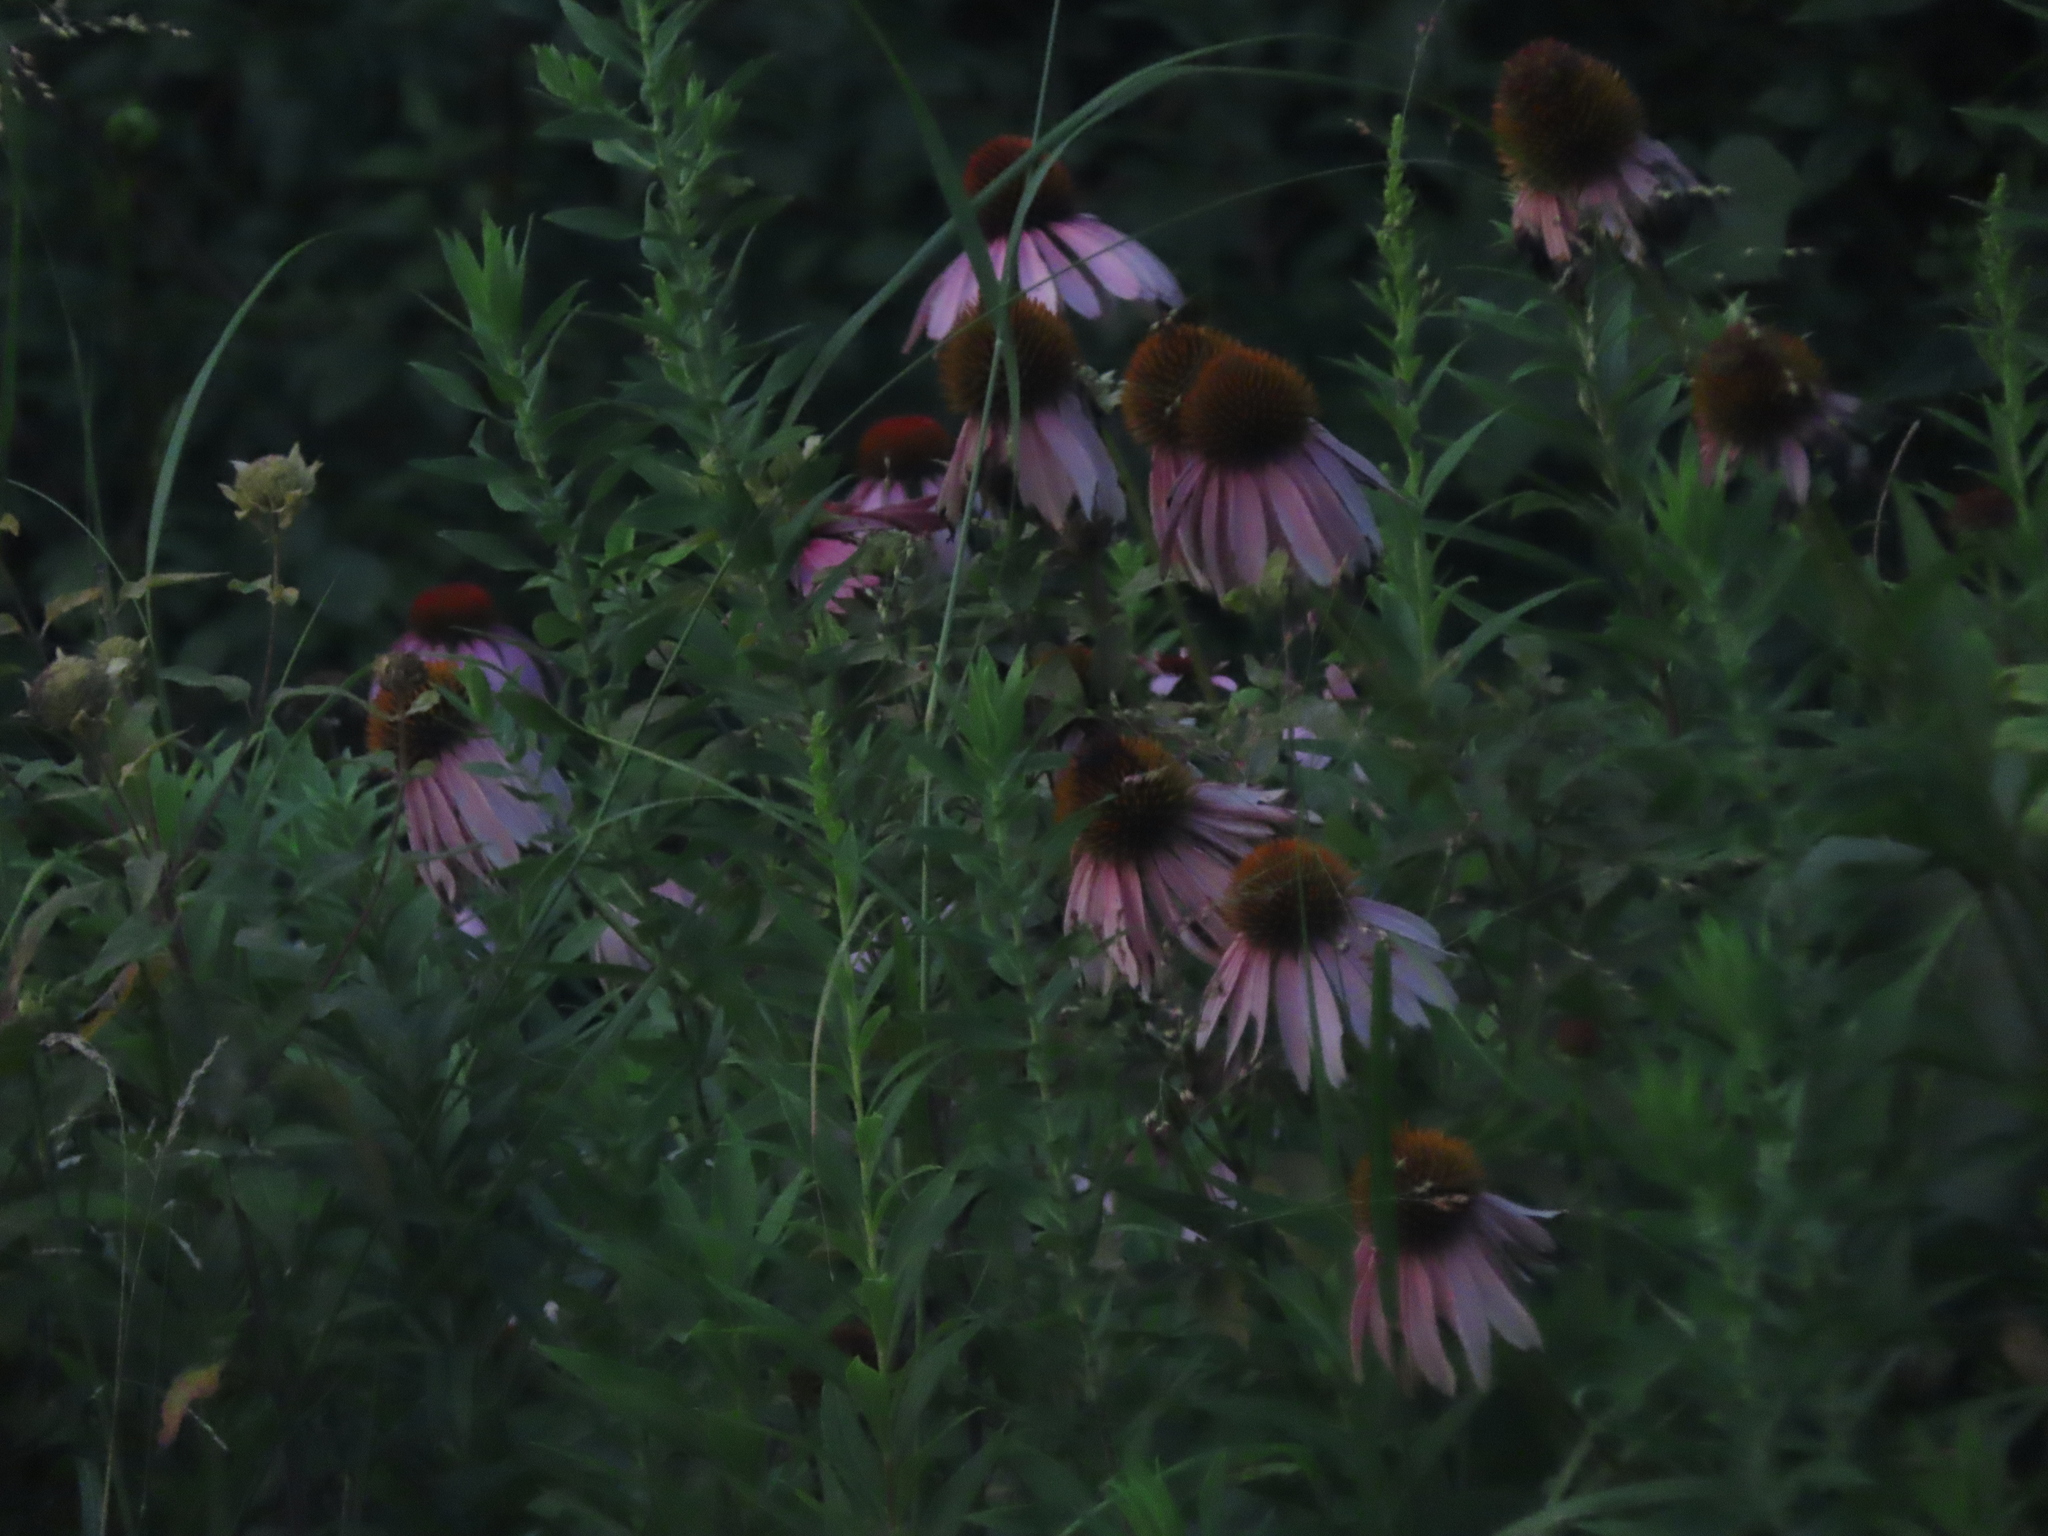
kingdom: Plantae
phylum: Tracheophyta
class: Magnoliopsida
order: Asterales
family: Asteraceae
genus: Echinacea
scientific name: Echinacea purpurea
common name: Broad-leaved purple coneflower
